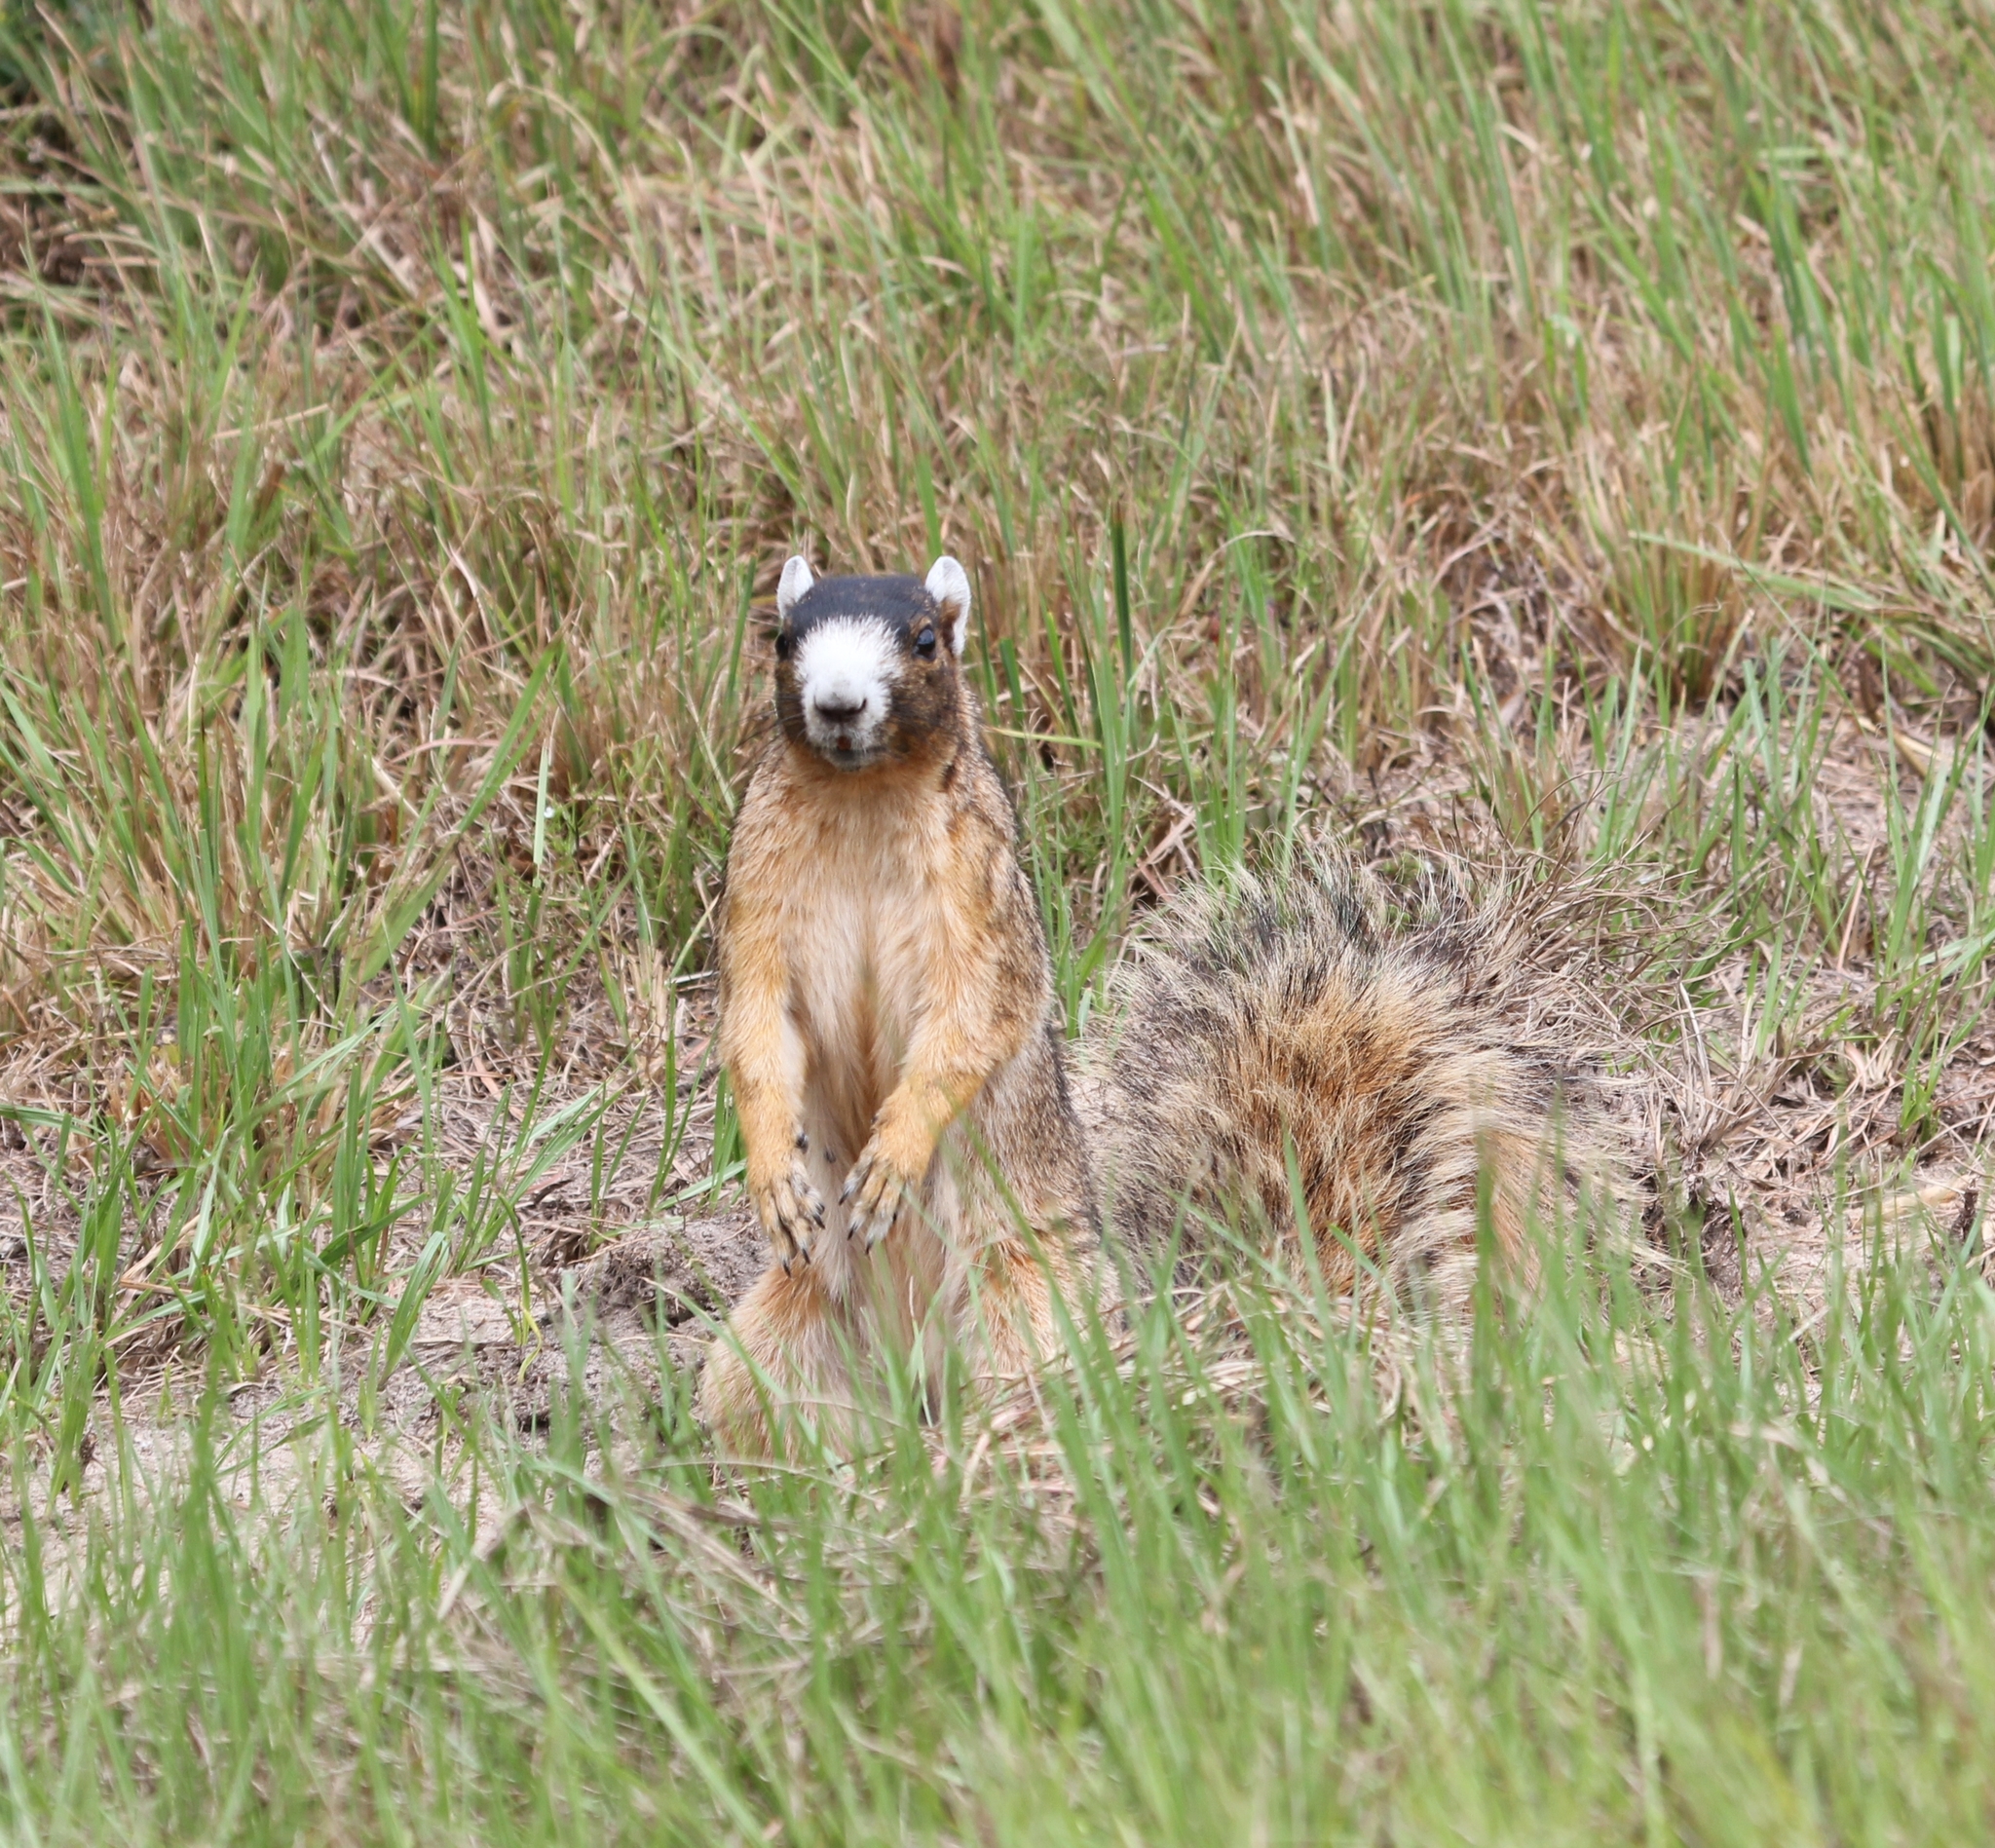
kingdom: Animalia
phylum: Chordata
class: Mammalia
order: Rodentia
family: Sciuridae
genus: Sciurus
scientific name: Sciurus niger
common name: Fox squirrel
